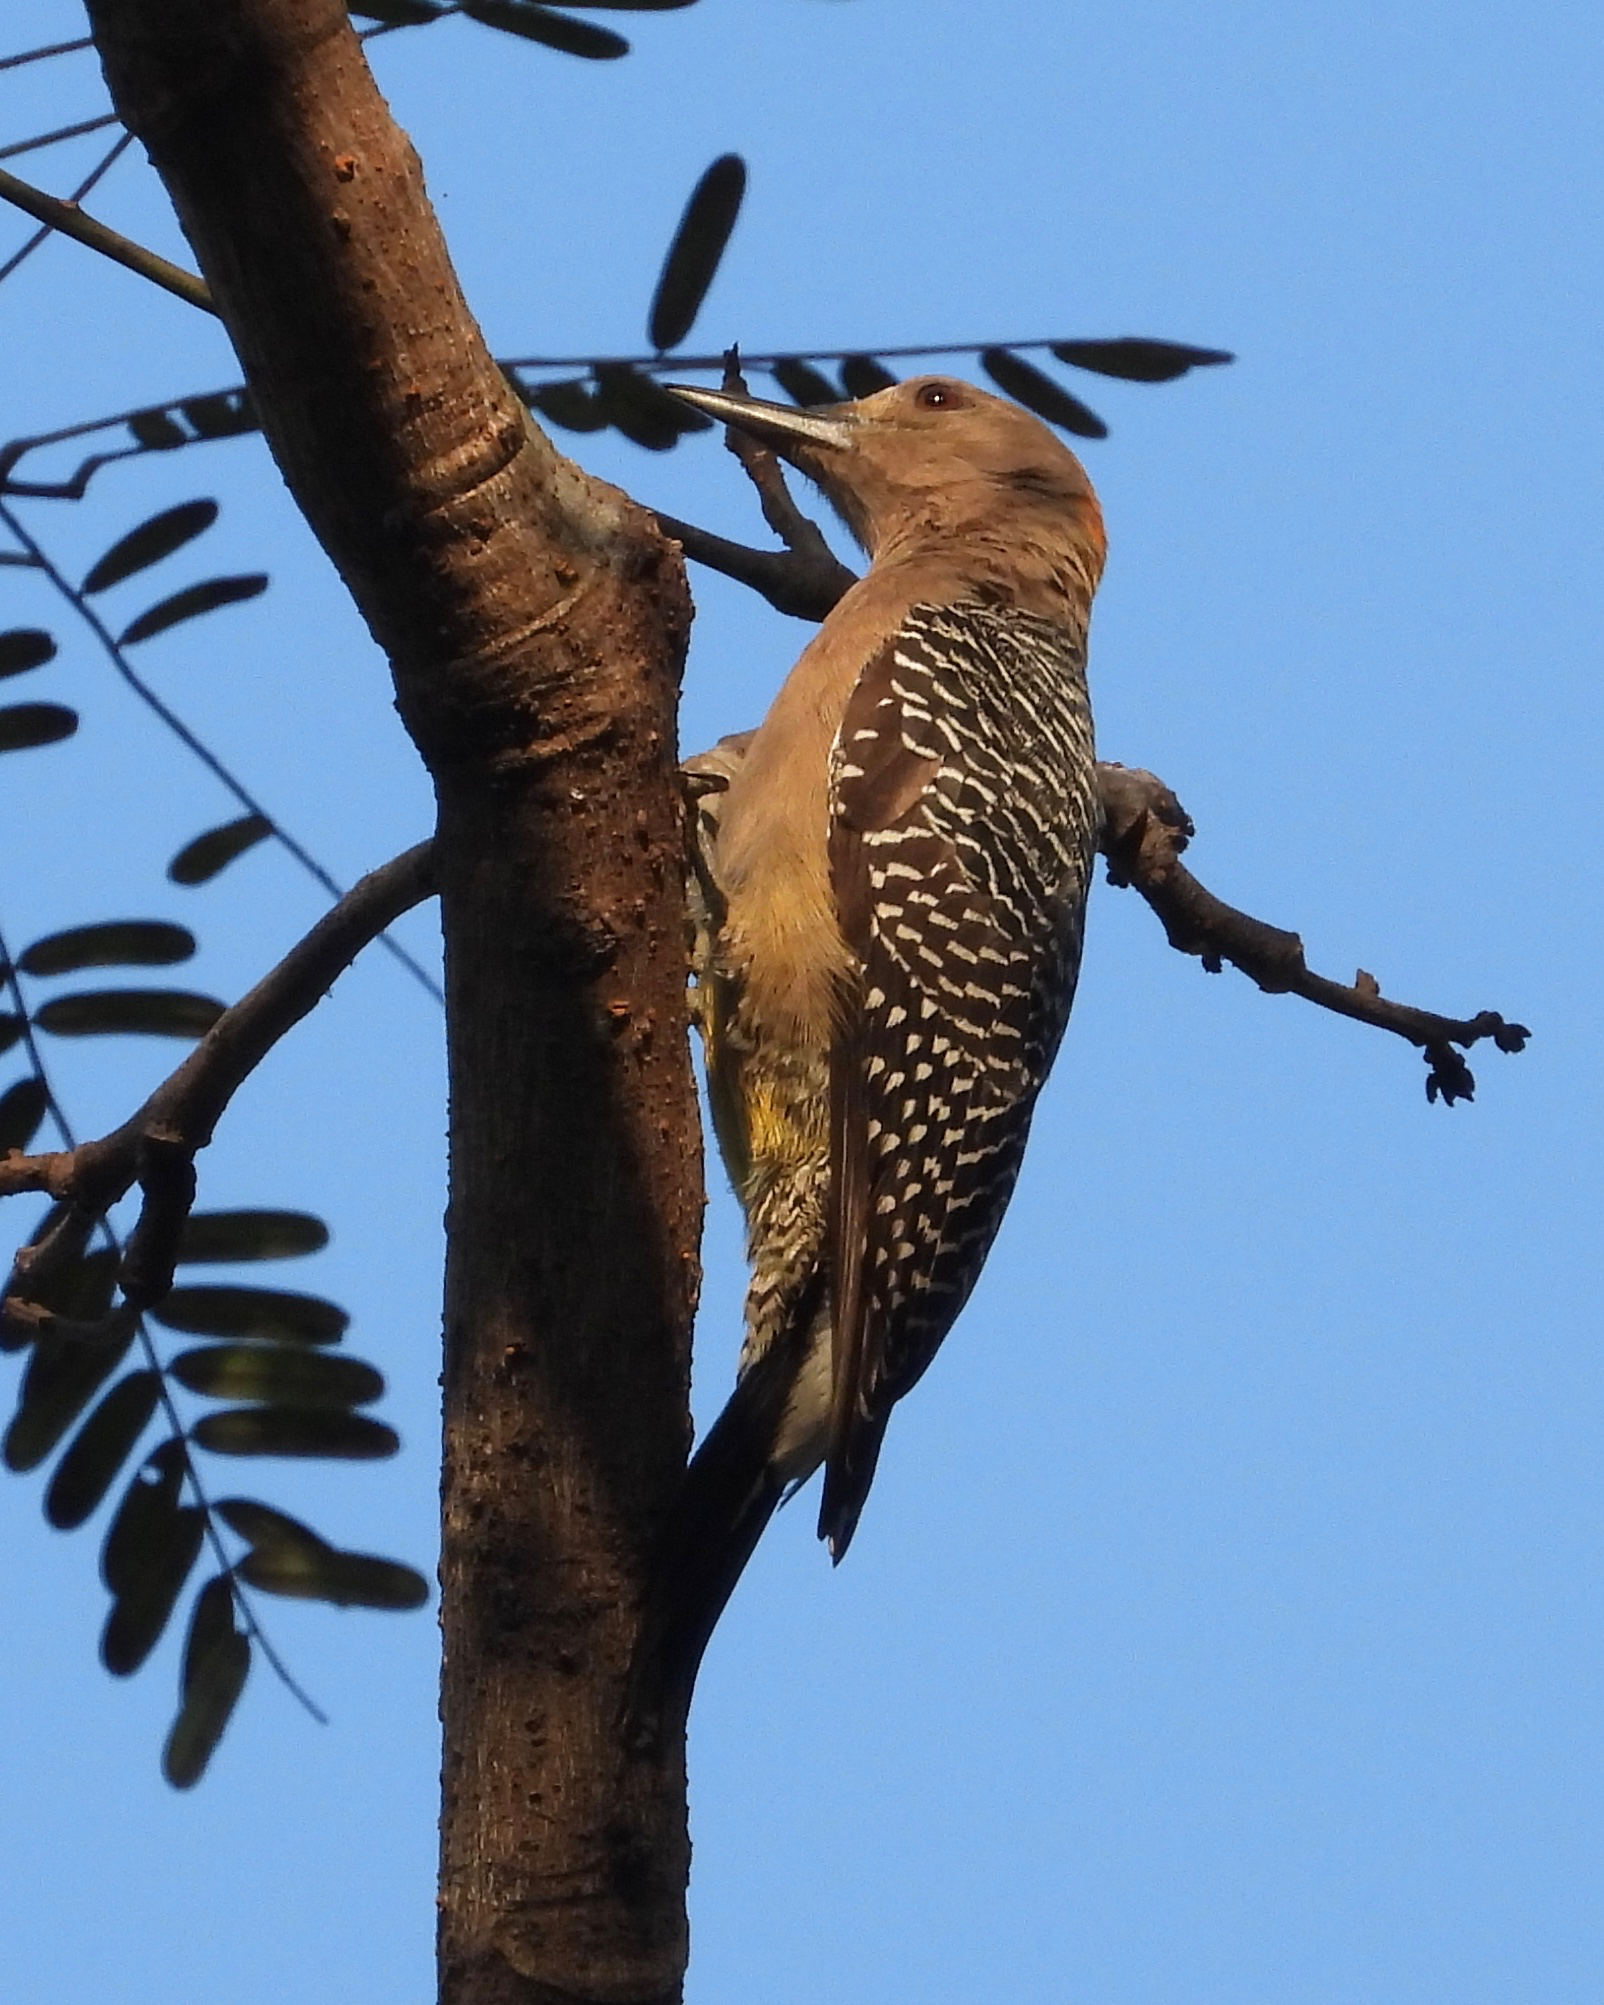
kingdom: Animalia
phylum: Chordata
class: Aves
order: Piciformes
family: Picidae
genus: Melanerpes
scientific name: Melanerpes aurifrons
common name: Golden-fronted woodpecker
